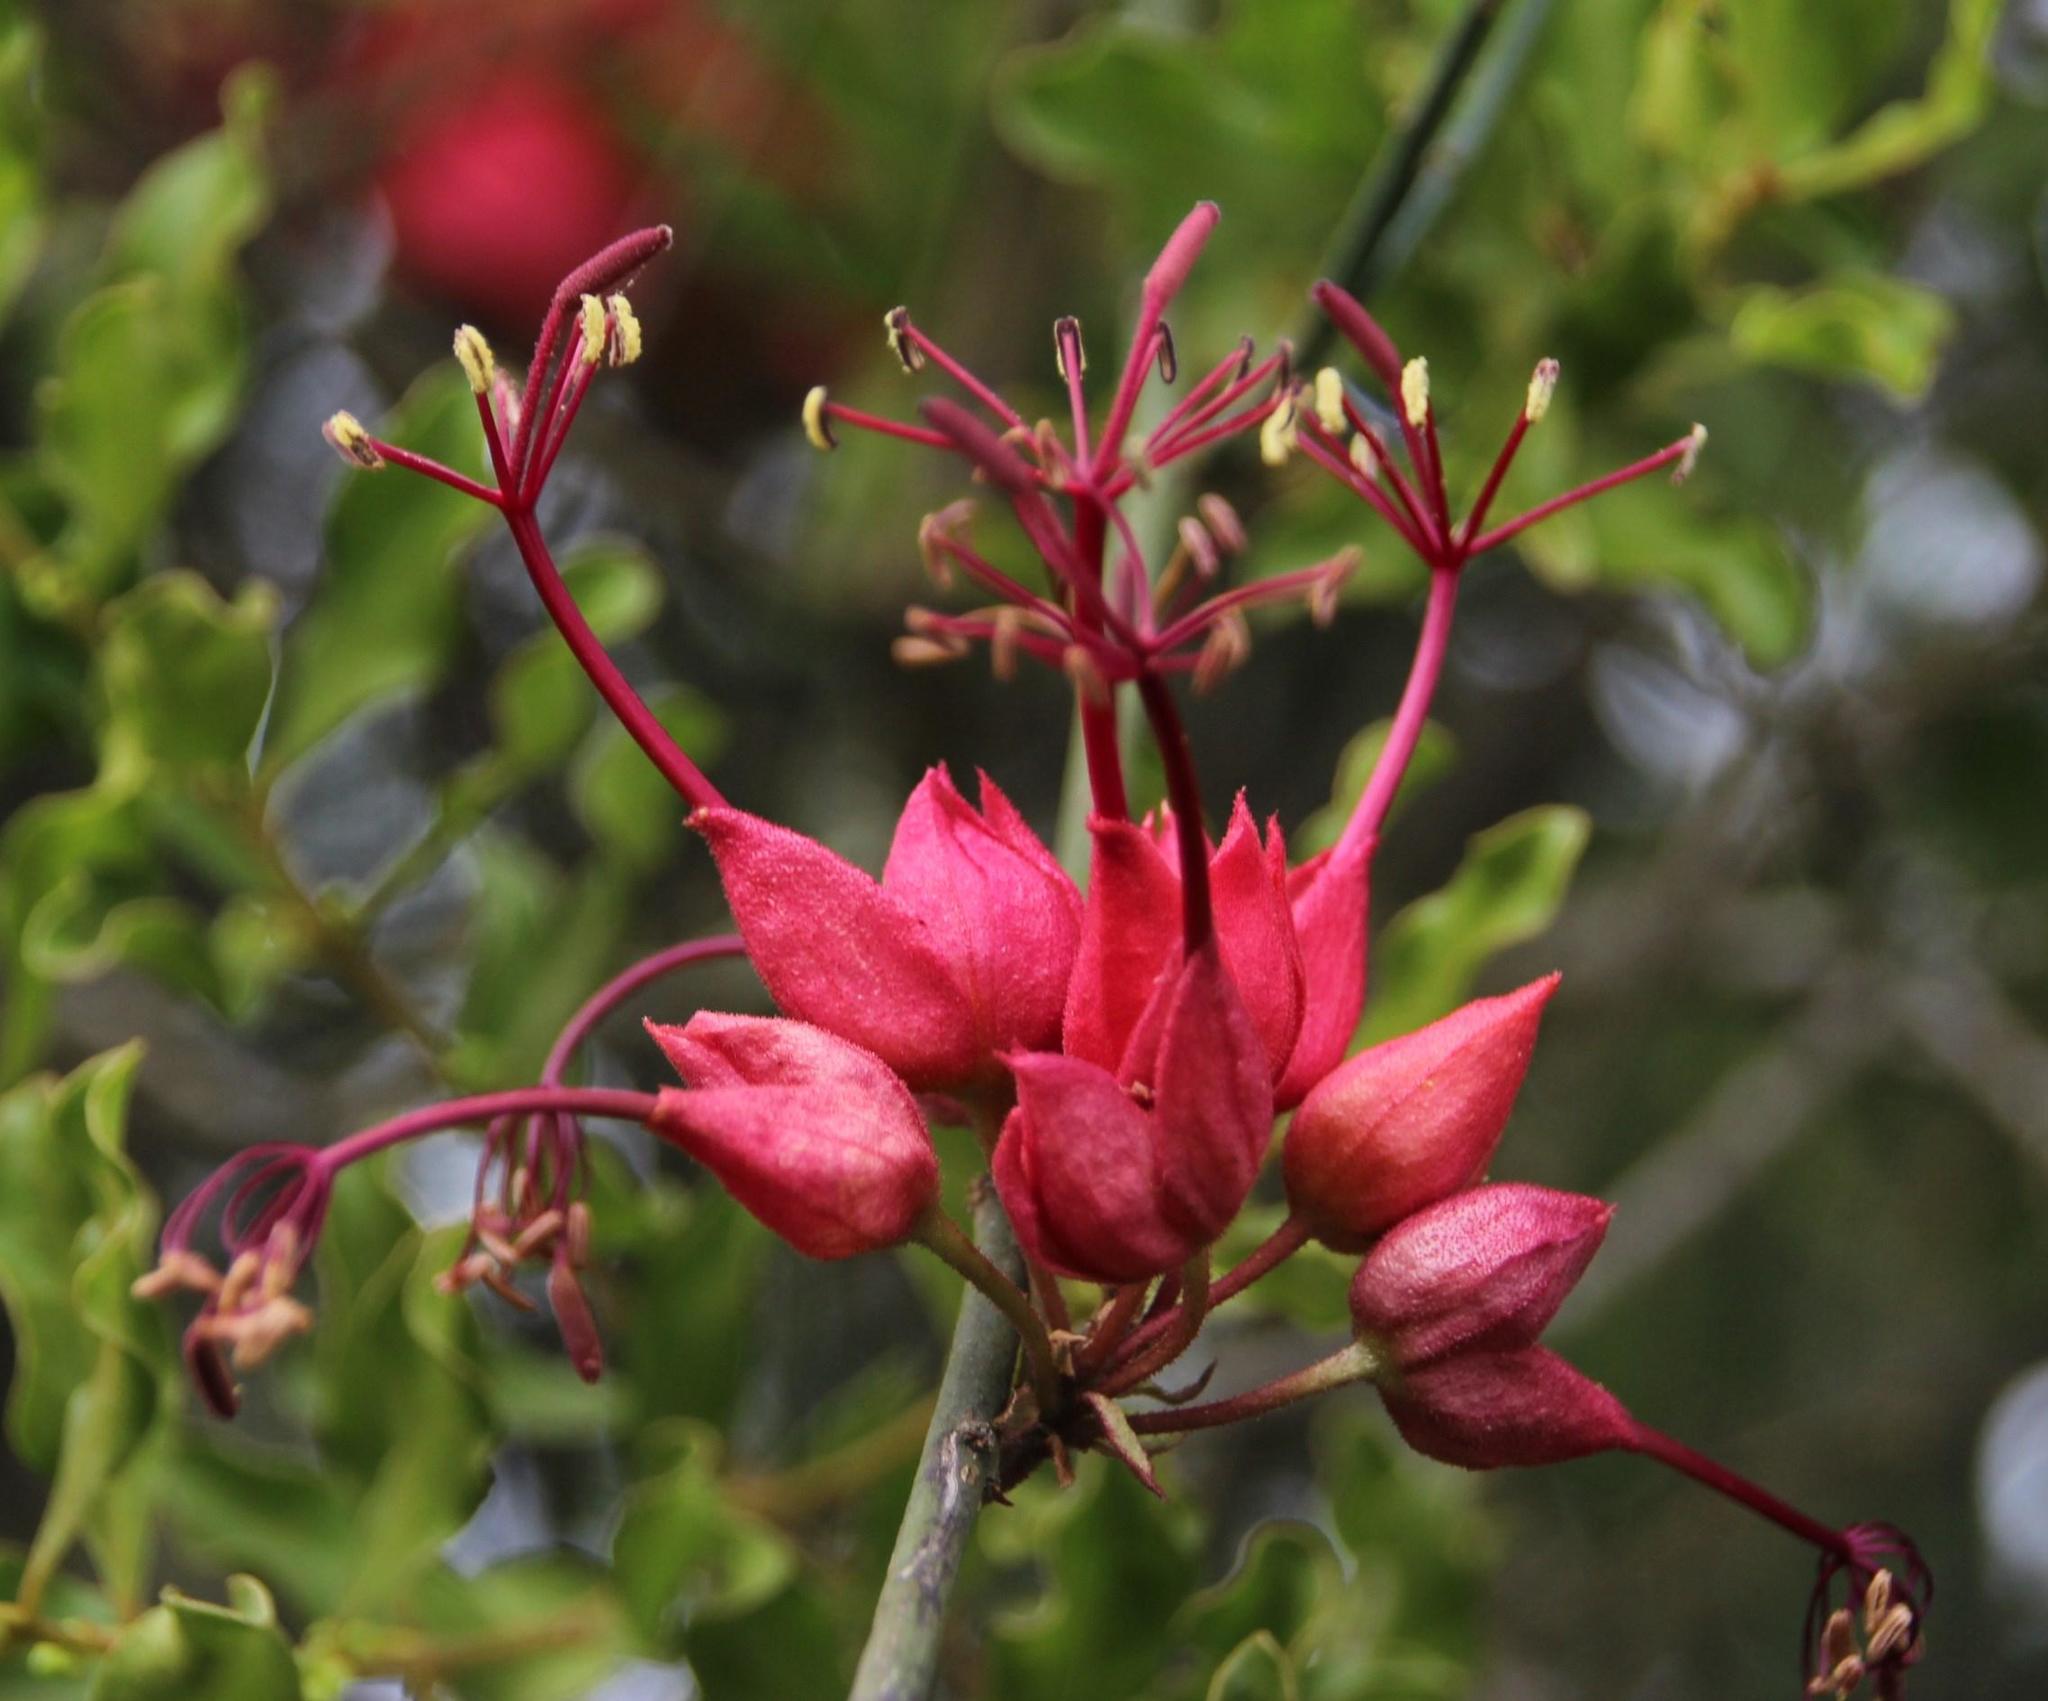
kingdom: Plantae
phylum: Tracheophyta
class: Magnoliopsida
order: Brassicales
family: Capparaceae
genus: Cadaba
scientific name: Cadaba aphylla
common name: Black storm
